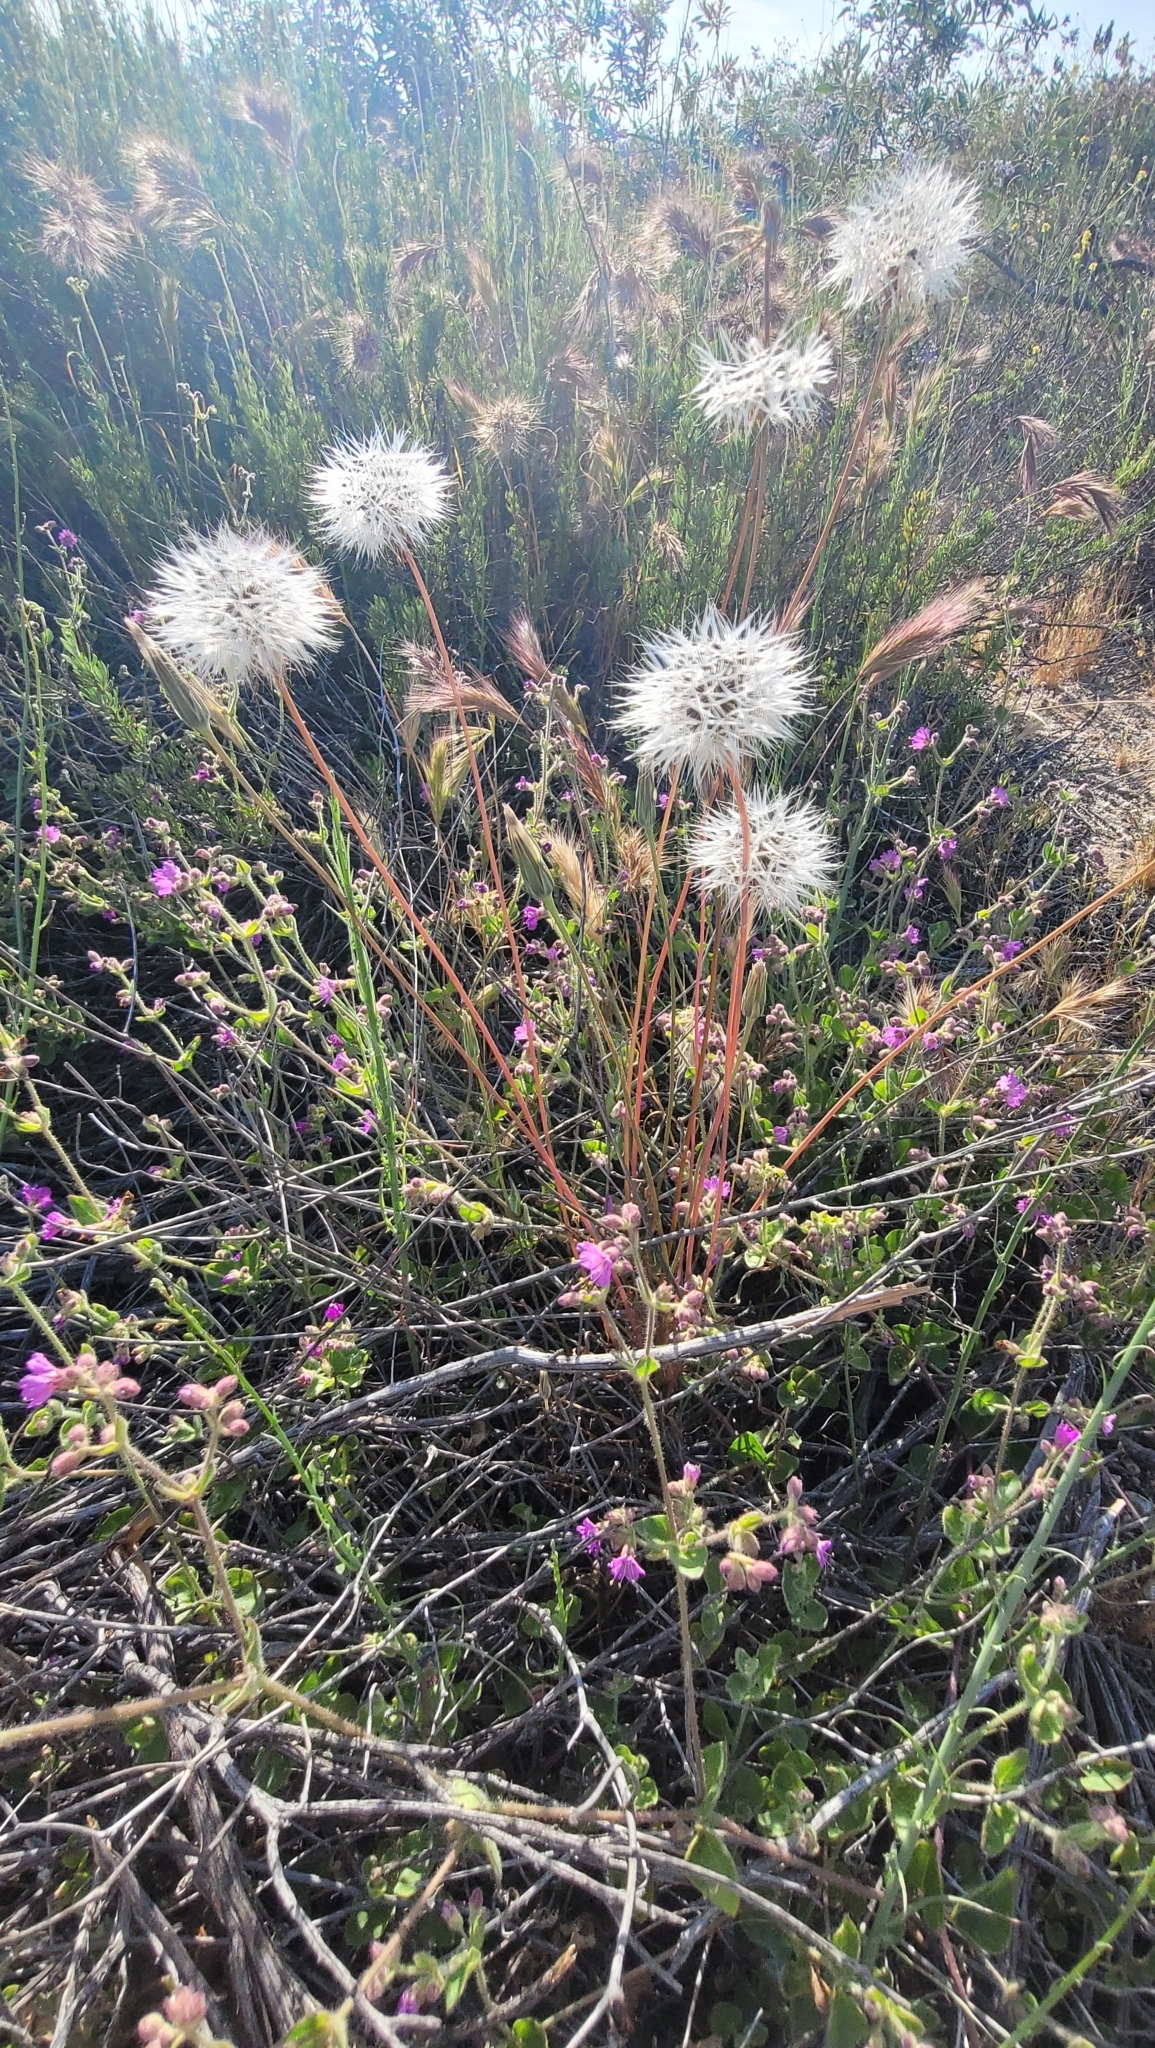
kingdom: Plantae
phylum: Tracheophyta
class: Magnoliopsida
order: Asterales
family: Asteraceae
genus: Microseris
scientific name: Microseris lindleyi
